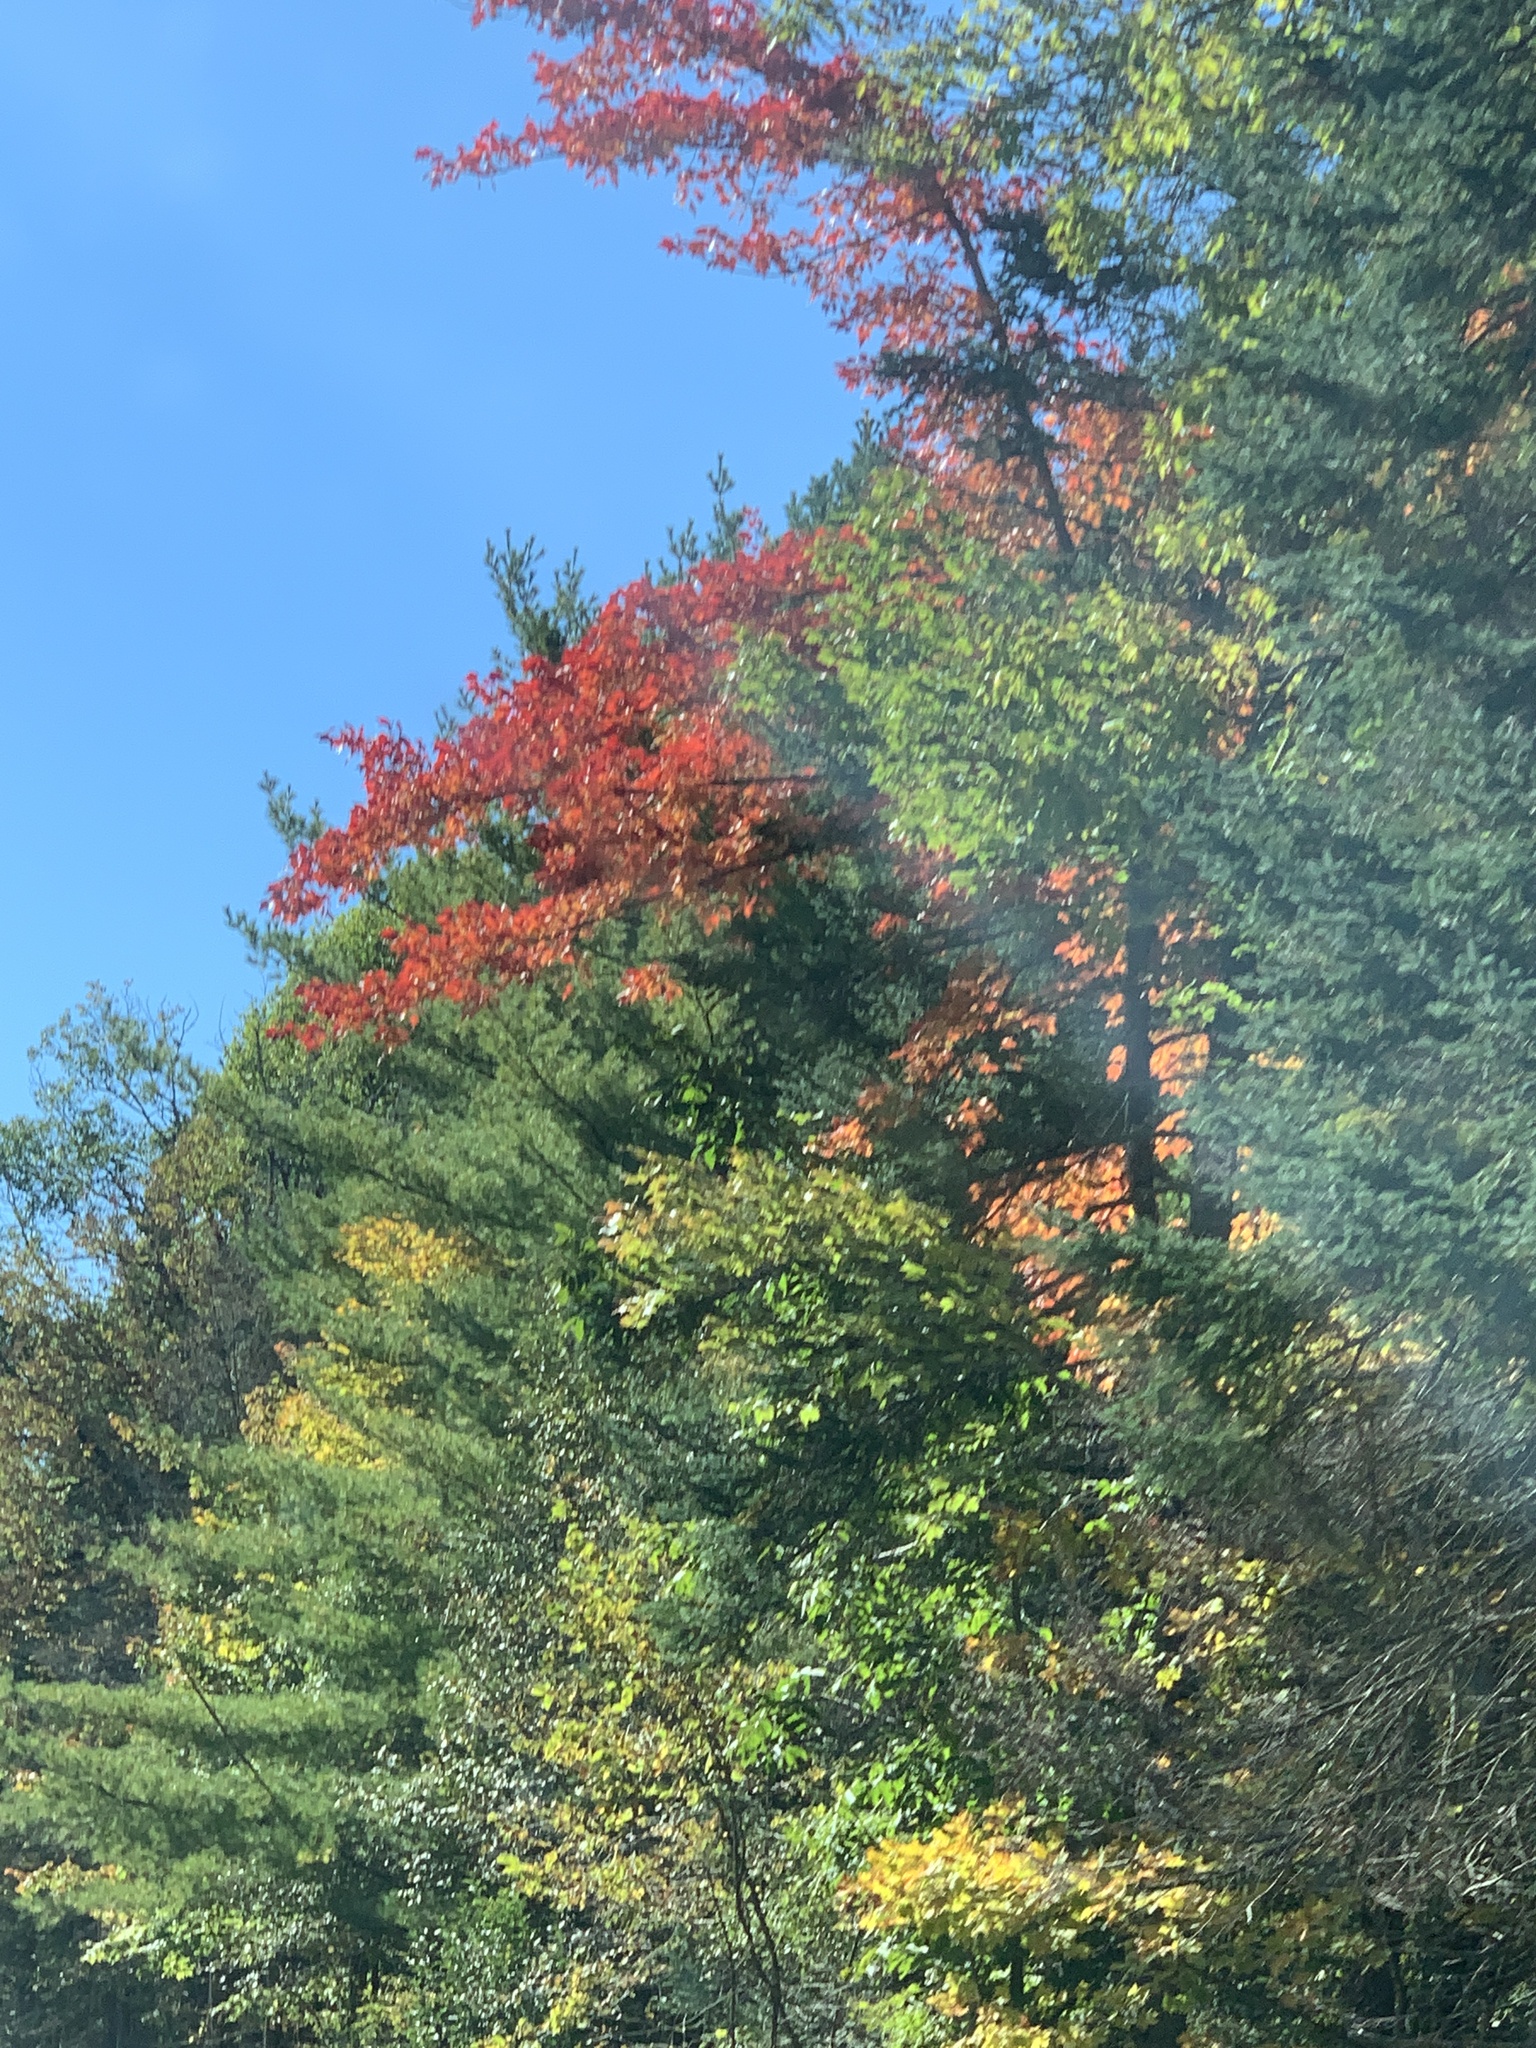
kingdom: Plantae
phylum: Tracheophyta
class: Magnoliopsida
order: Sapindales
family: Sapindaceae
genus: Acer
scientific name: Acer rubrum
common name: Red maple
